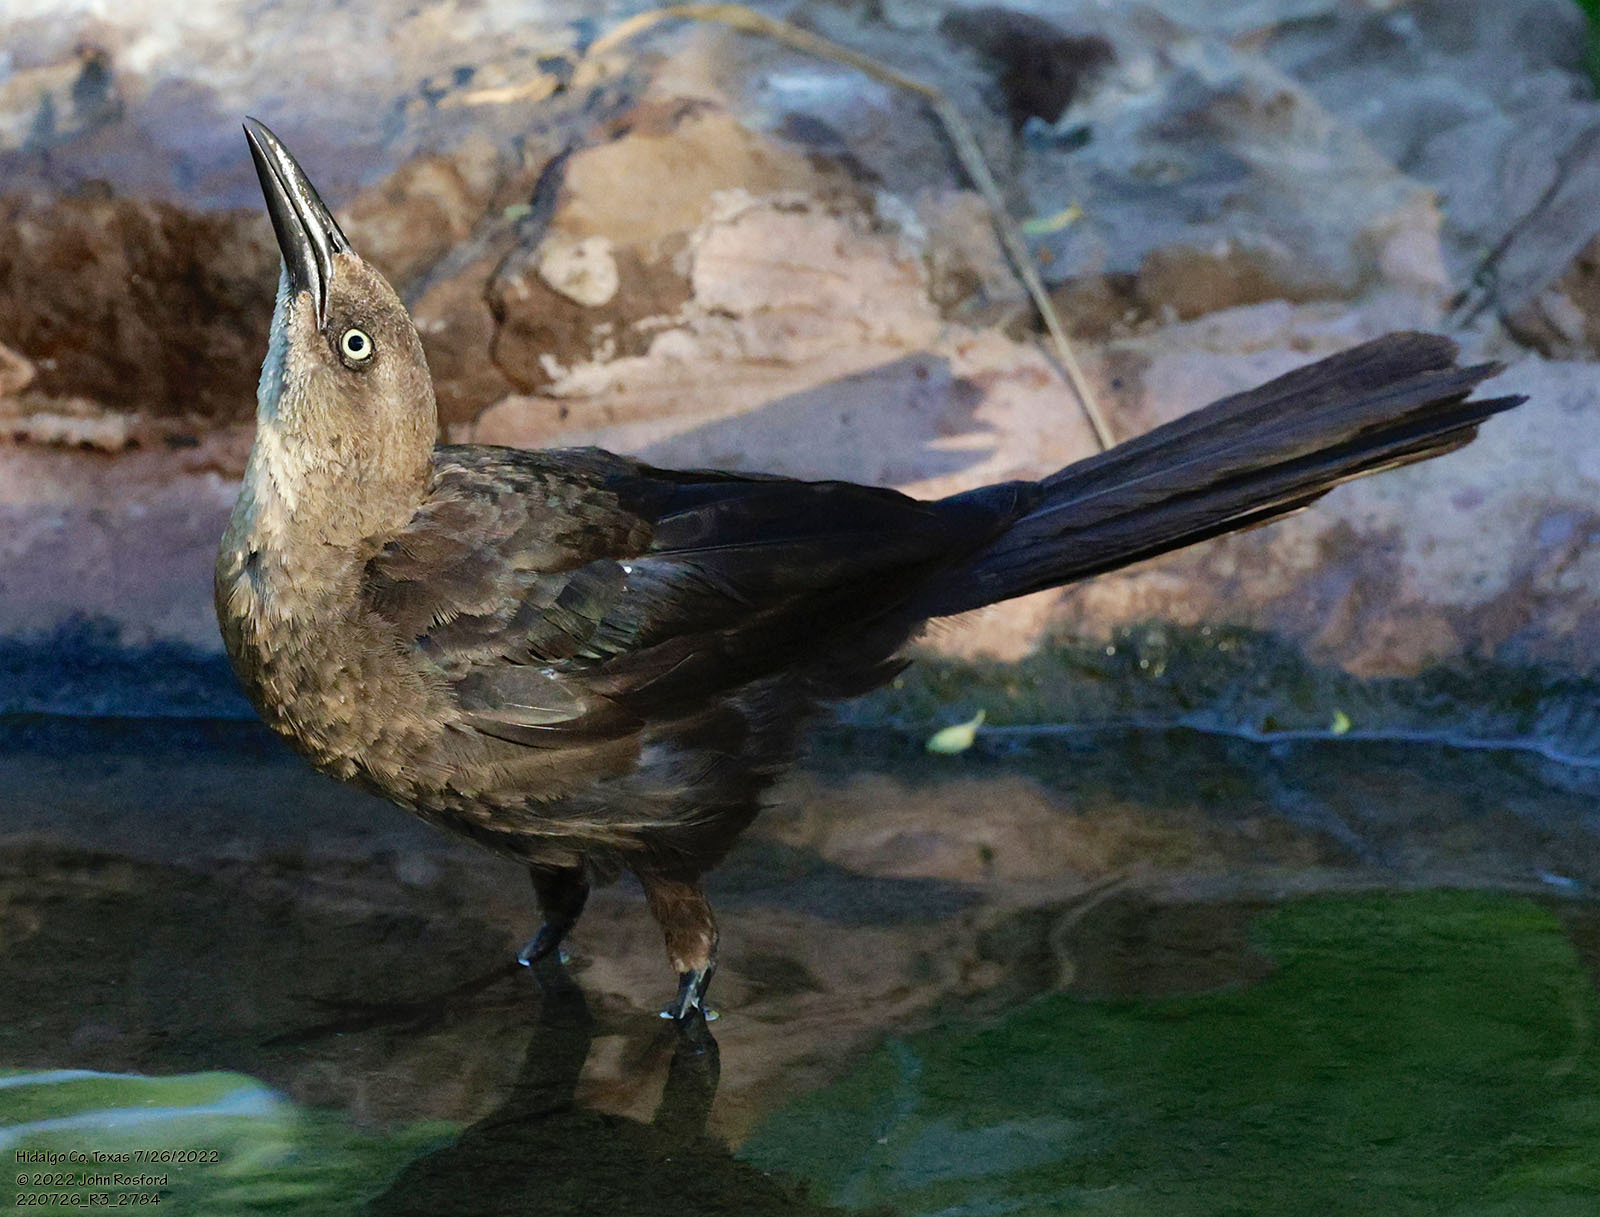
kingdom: Animalia
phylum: Chordata
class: Aves
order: Passeriformes
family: Icteridae
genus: Quiscalus
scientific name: Quiscalus mexicanus
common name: Great-tailed grackle
